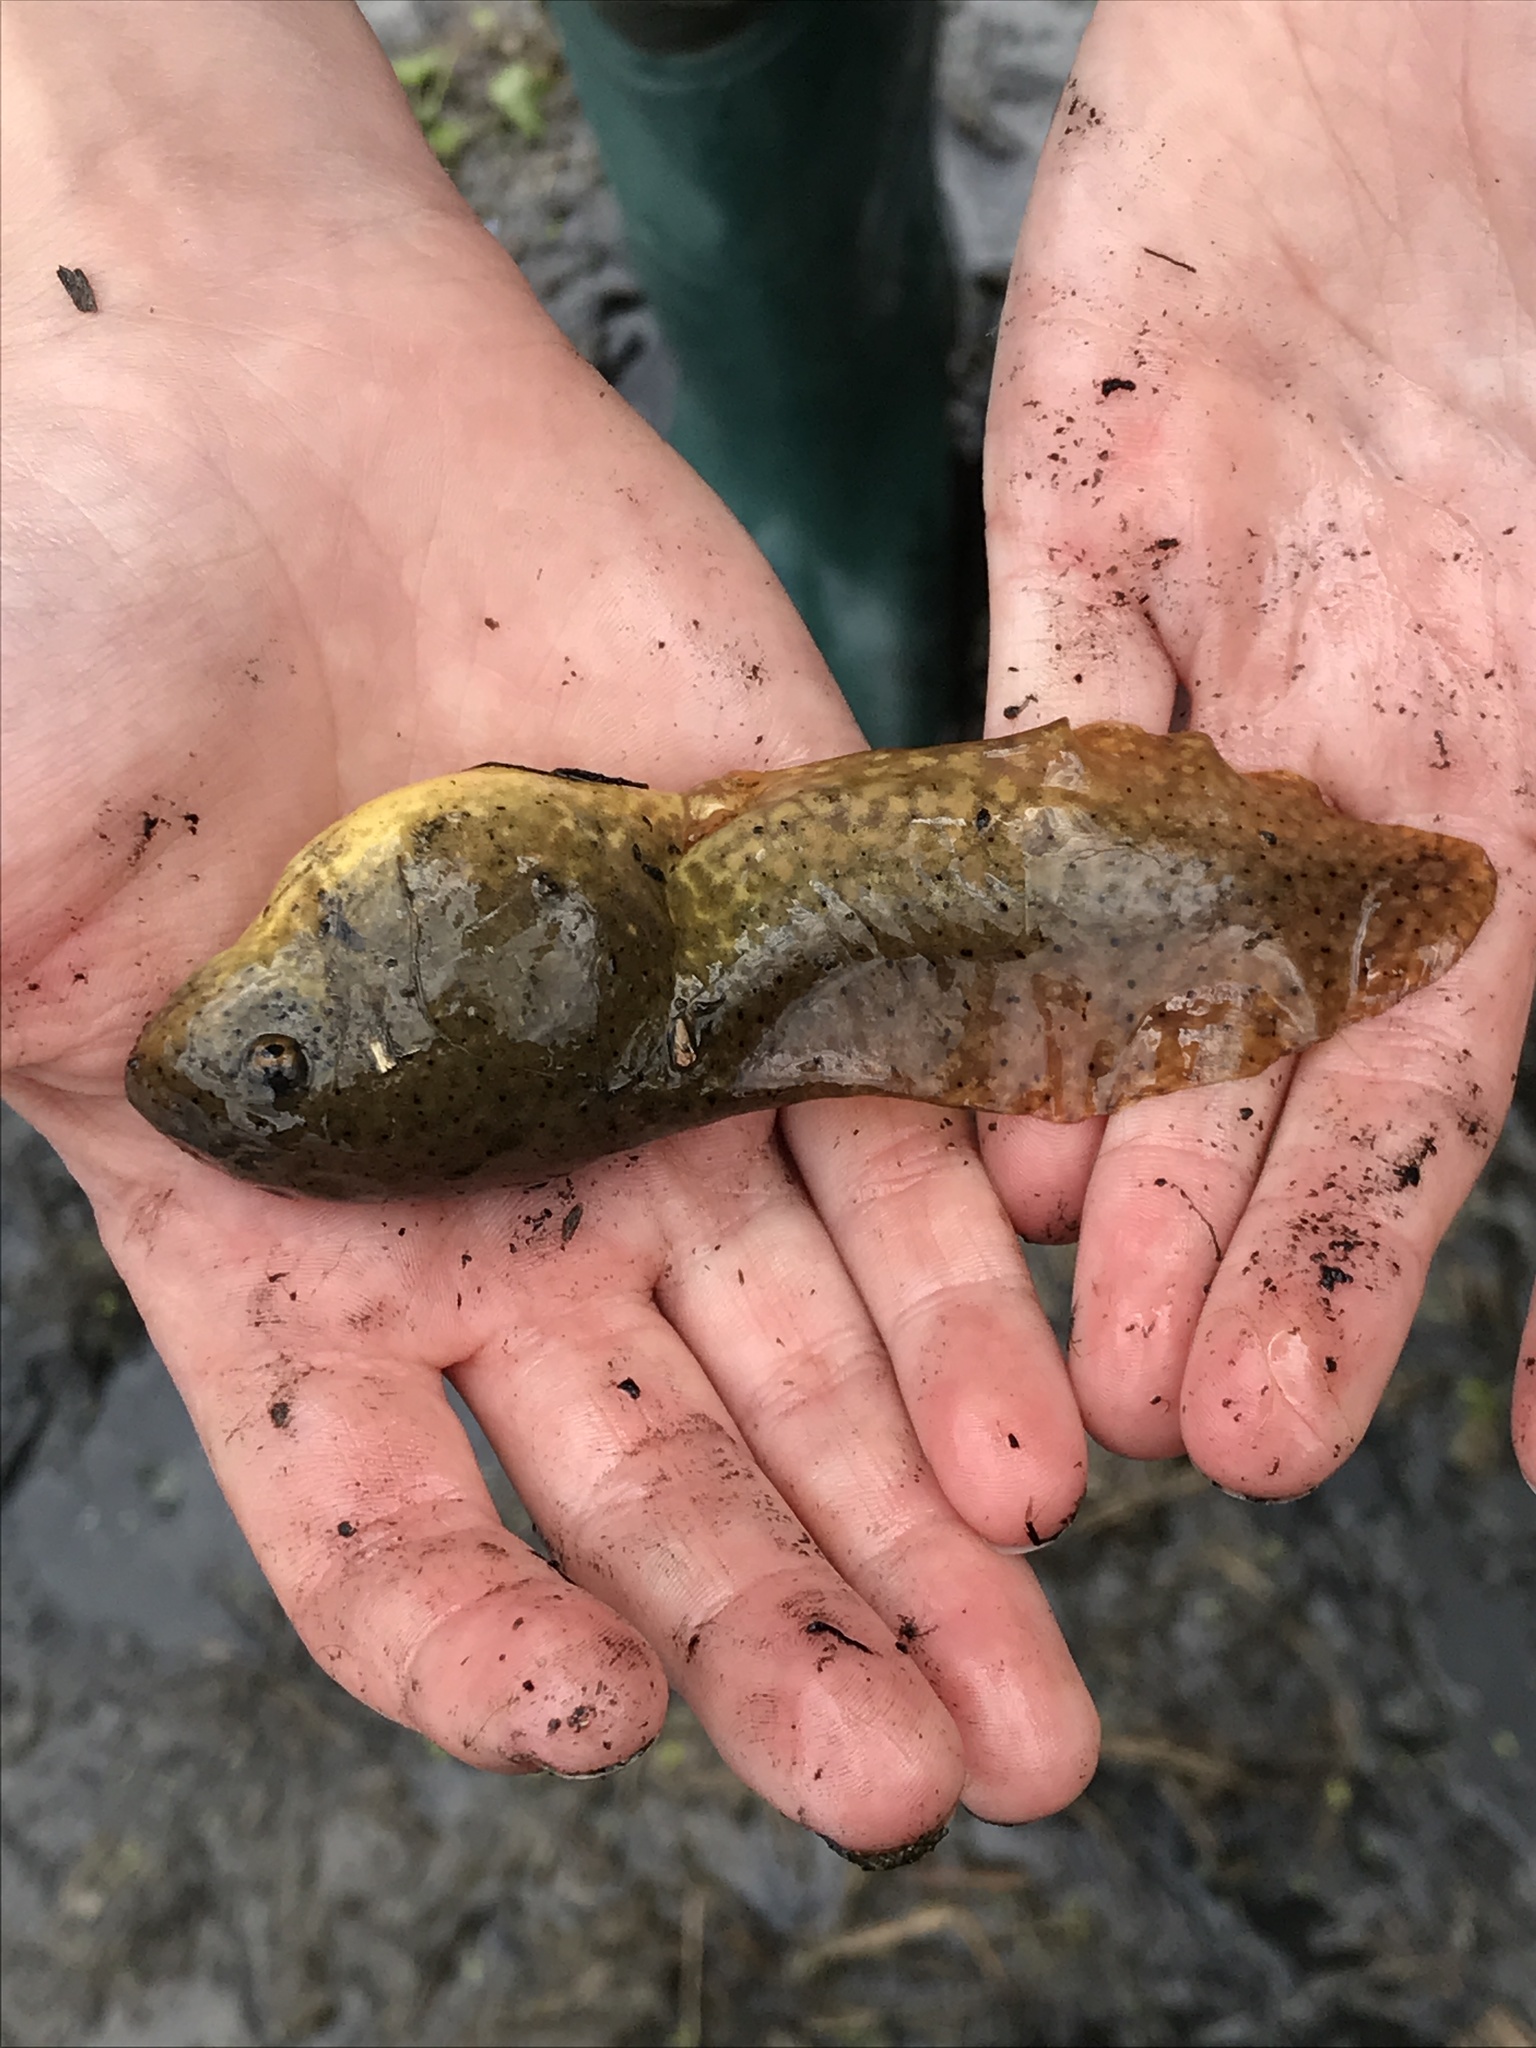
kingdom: Animalia
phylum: Chordata
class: Amphibia
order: Anura
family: Ranidae
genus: Lithobates
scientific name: Lithobates catesbeianus
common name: American bullfrog
